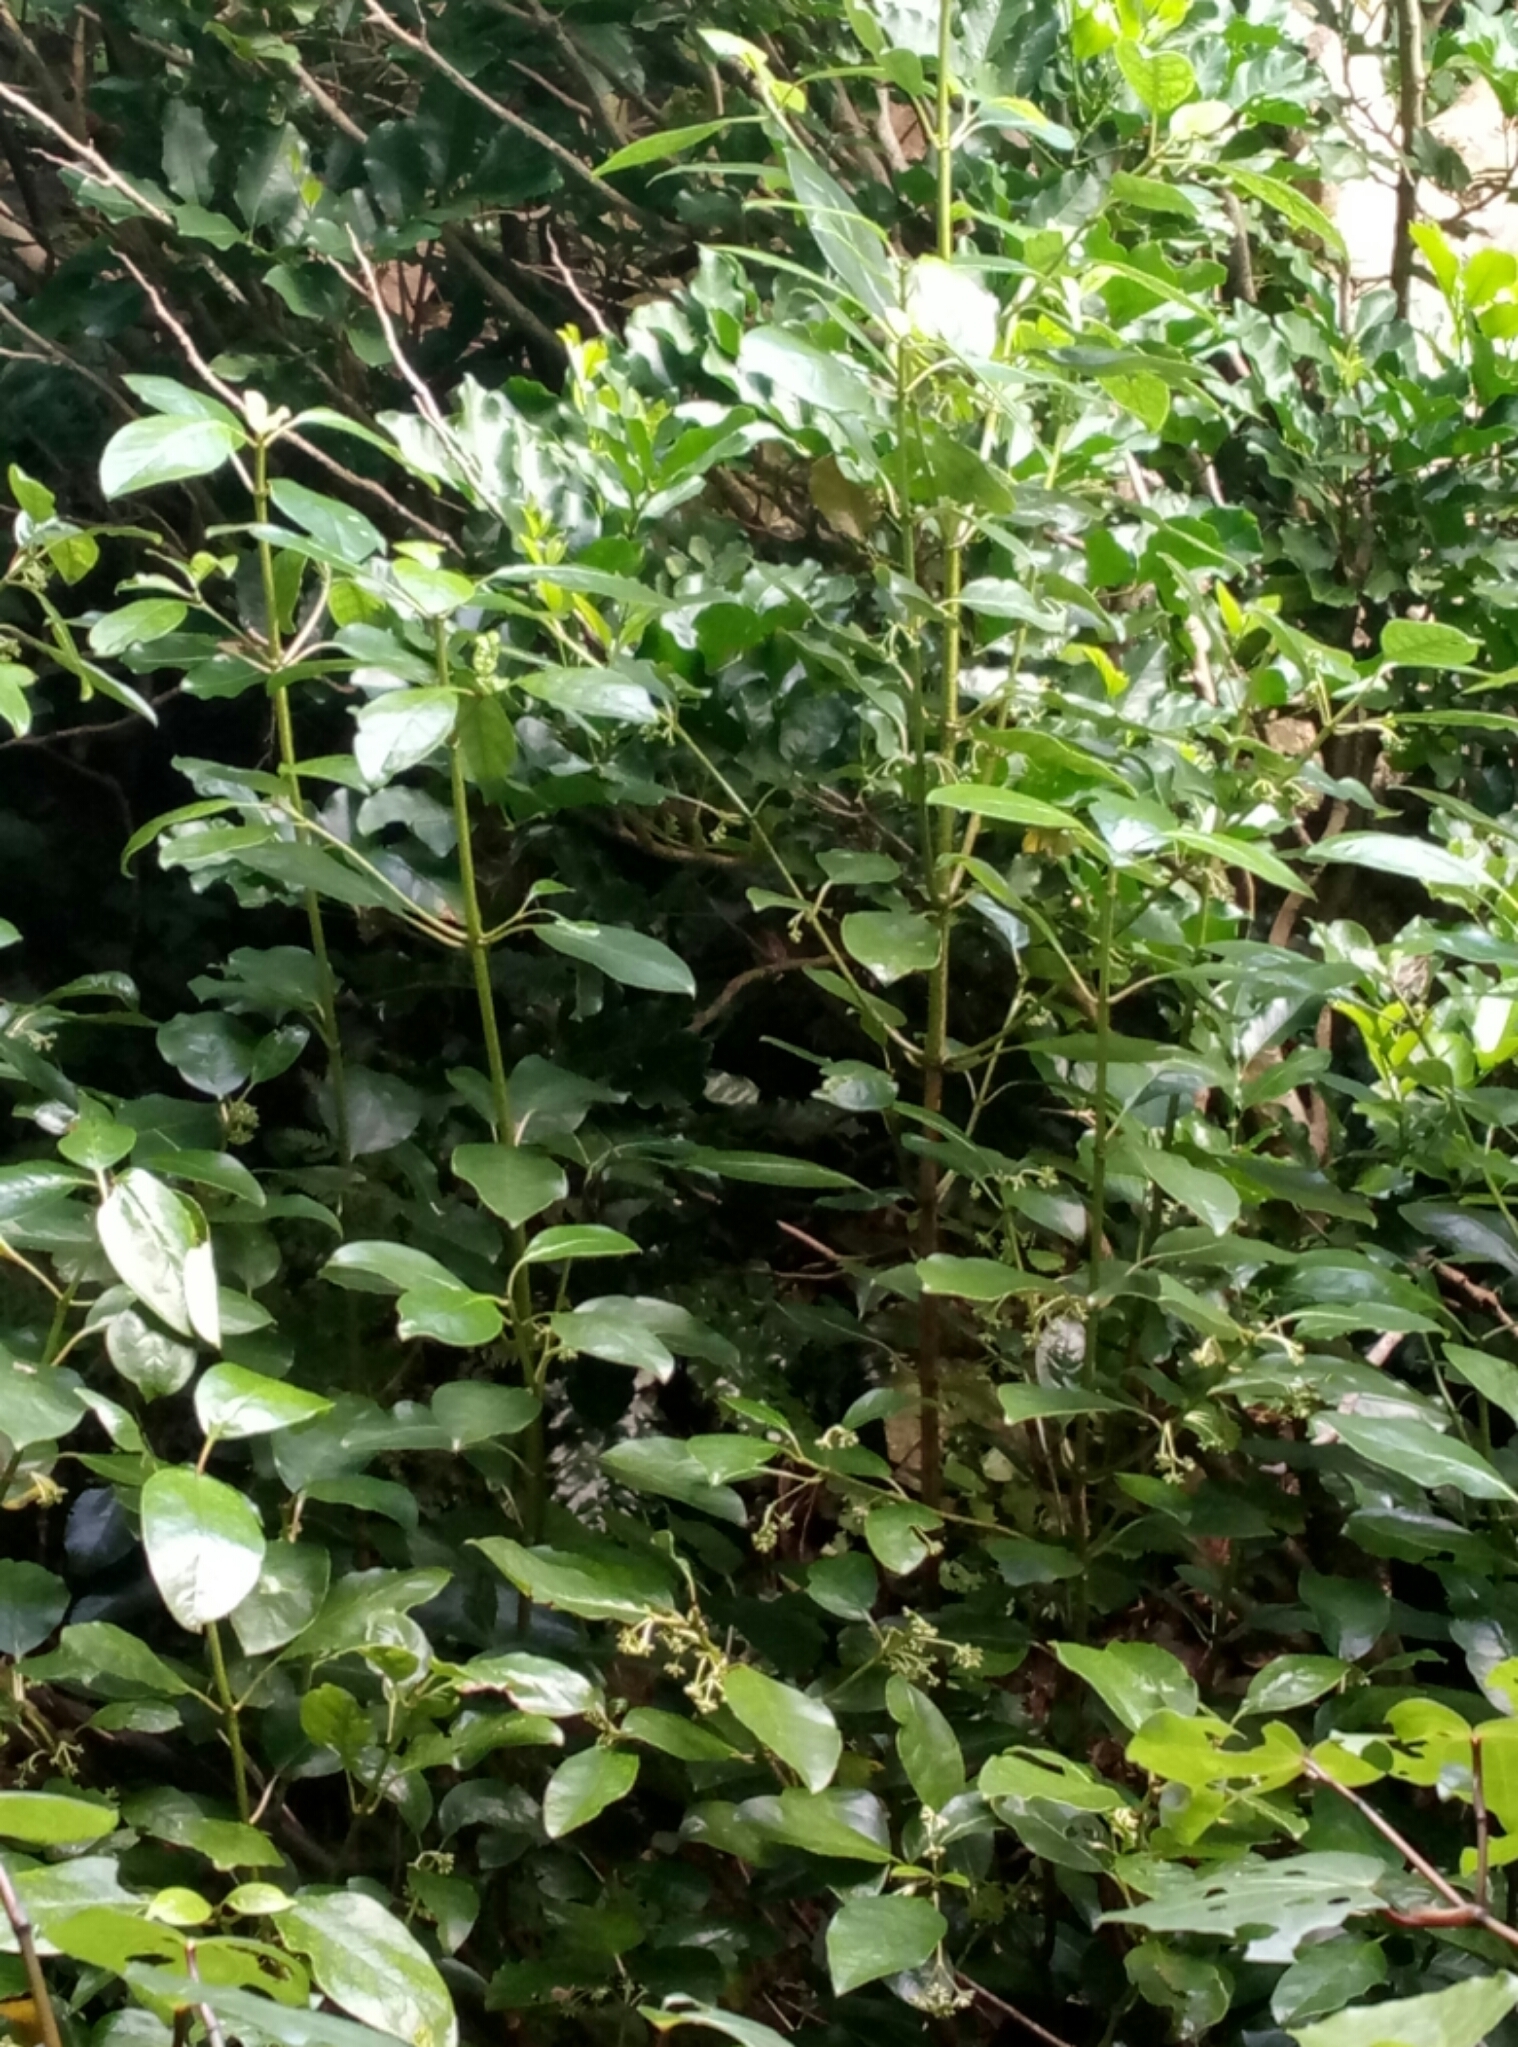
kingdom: Plantae
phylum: Tracheophyta
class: Magnoliopsida
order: Gentianales
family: Rubiaceae
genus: Coprosma
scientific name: Coprosma autumnalis
